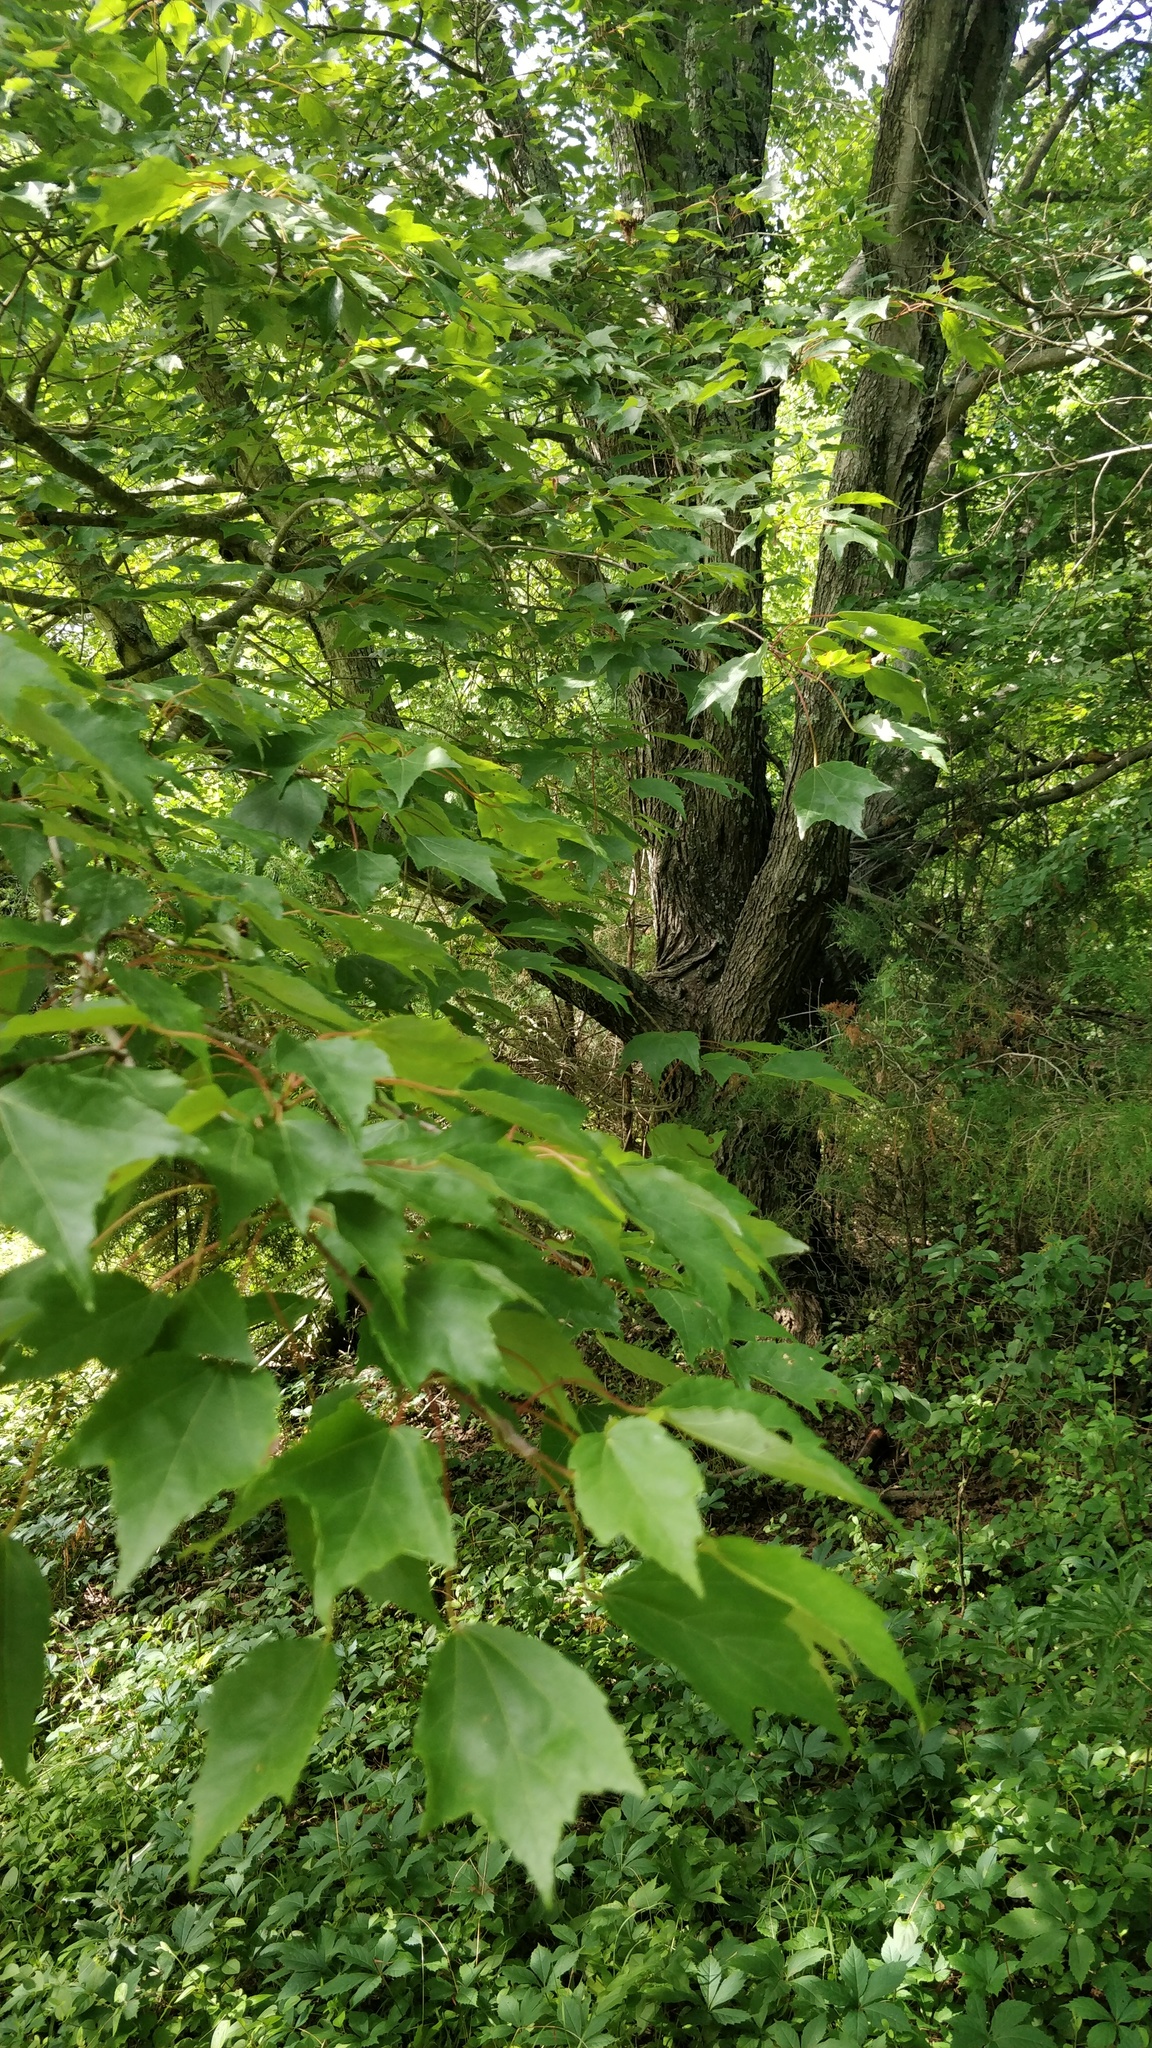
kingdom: Plantae
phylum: Tracheophyta
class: Magnoliopsida
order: Sapindales
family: Sapindaceae
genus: Acer
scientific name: Acer rubrum
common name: Red maple
